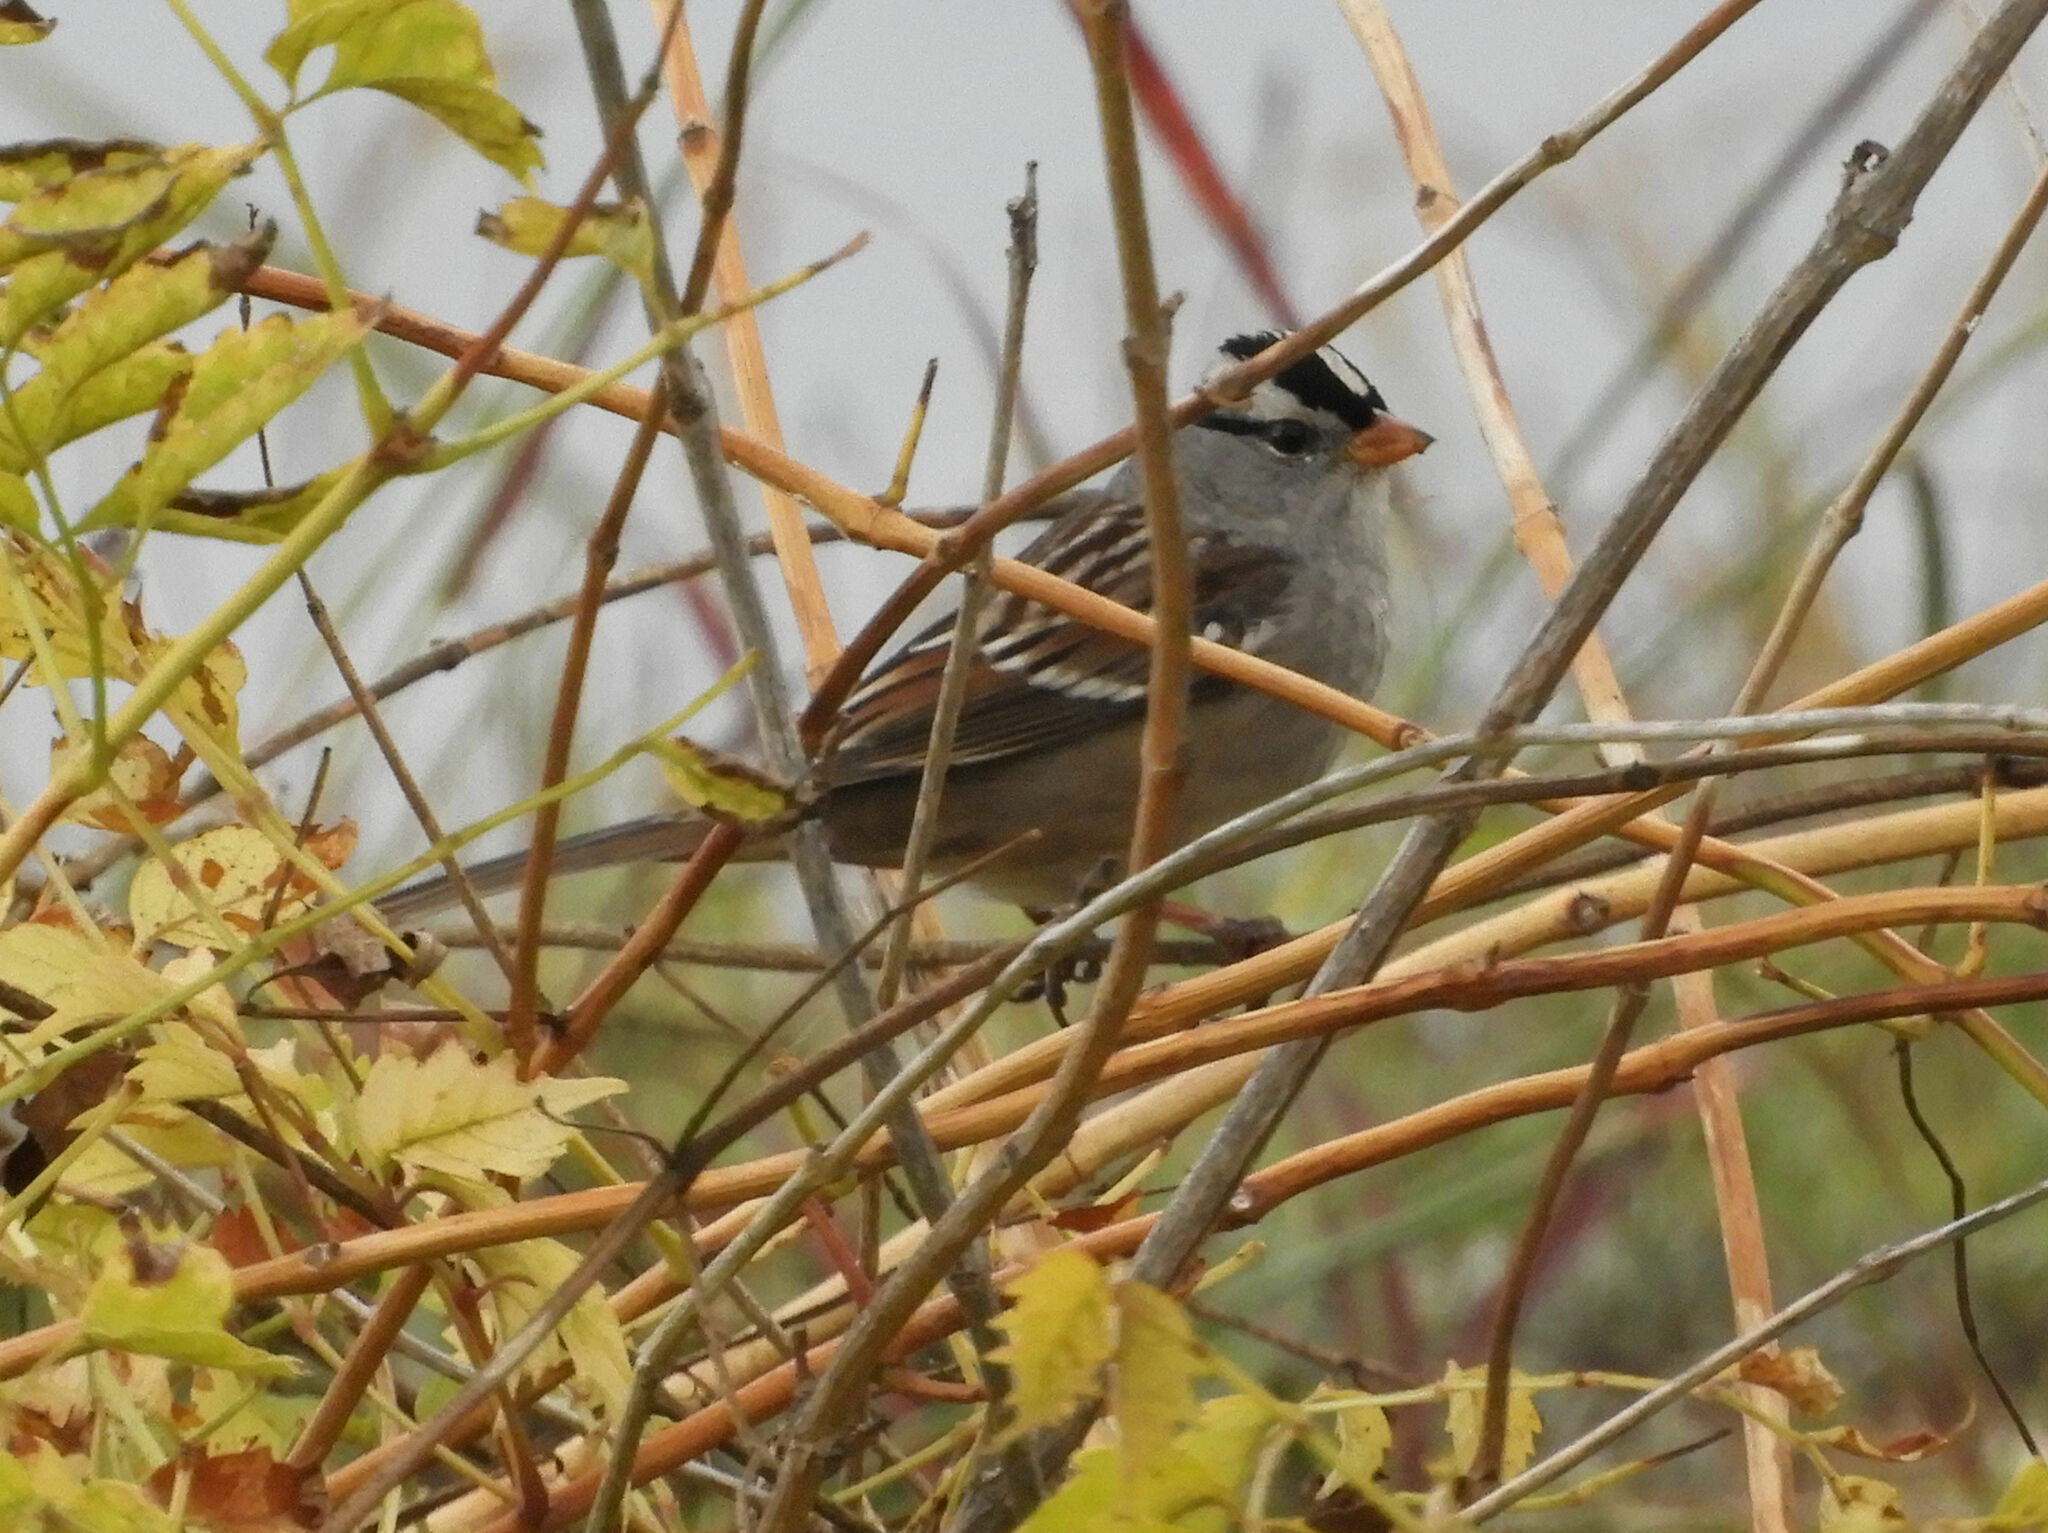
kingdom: Animalia
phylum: Chordata
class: Aves
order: Passeriformes
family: Passerellidae
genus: Zonotrichia
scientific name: Zonotrichia leucophrys
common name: White-crowned sparrow
